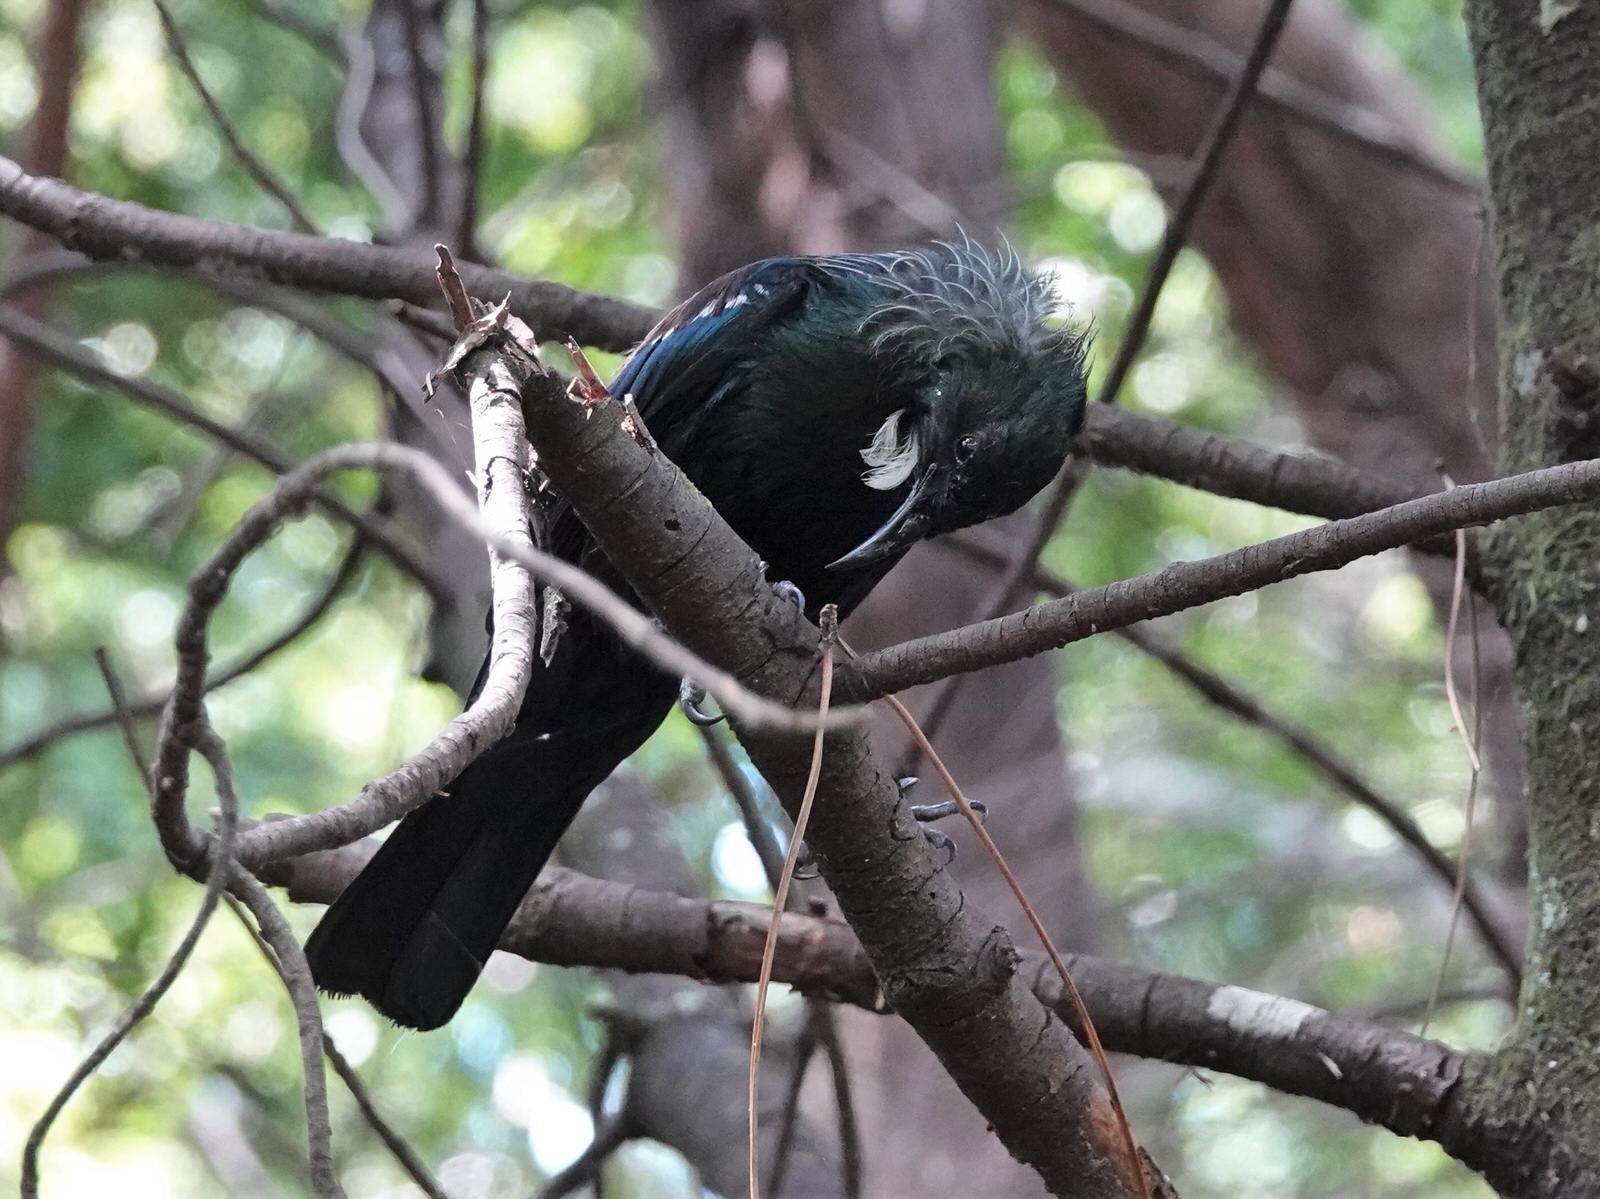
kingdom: Animalia
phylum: Chordata
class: Aves
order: Passeriformes
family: Meliphagidae
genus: Prosthemadera
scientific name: Prosthemadera novaeseelandiae
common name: Tui
